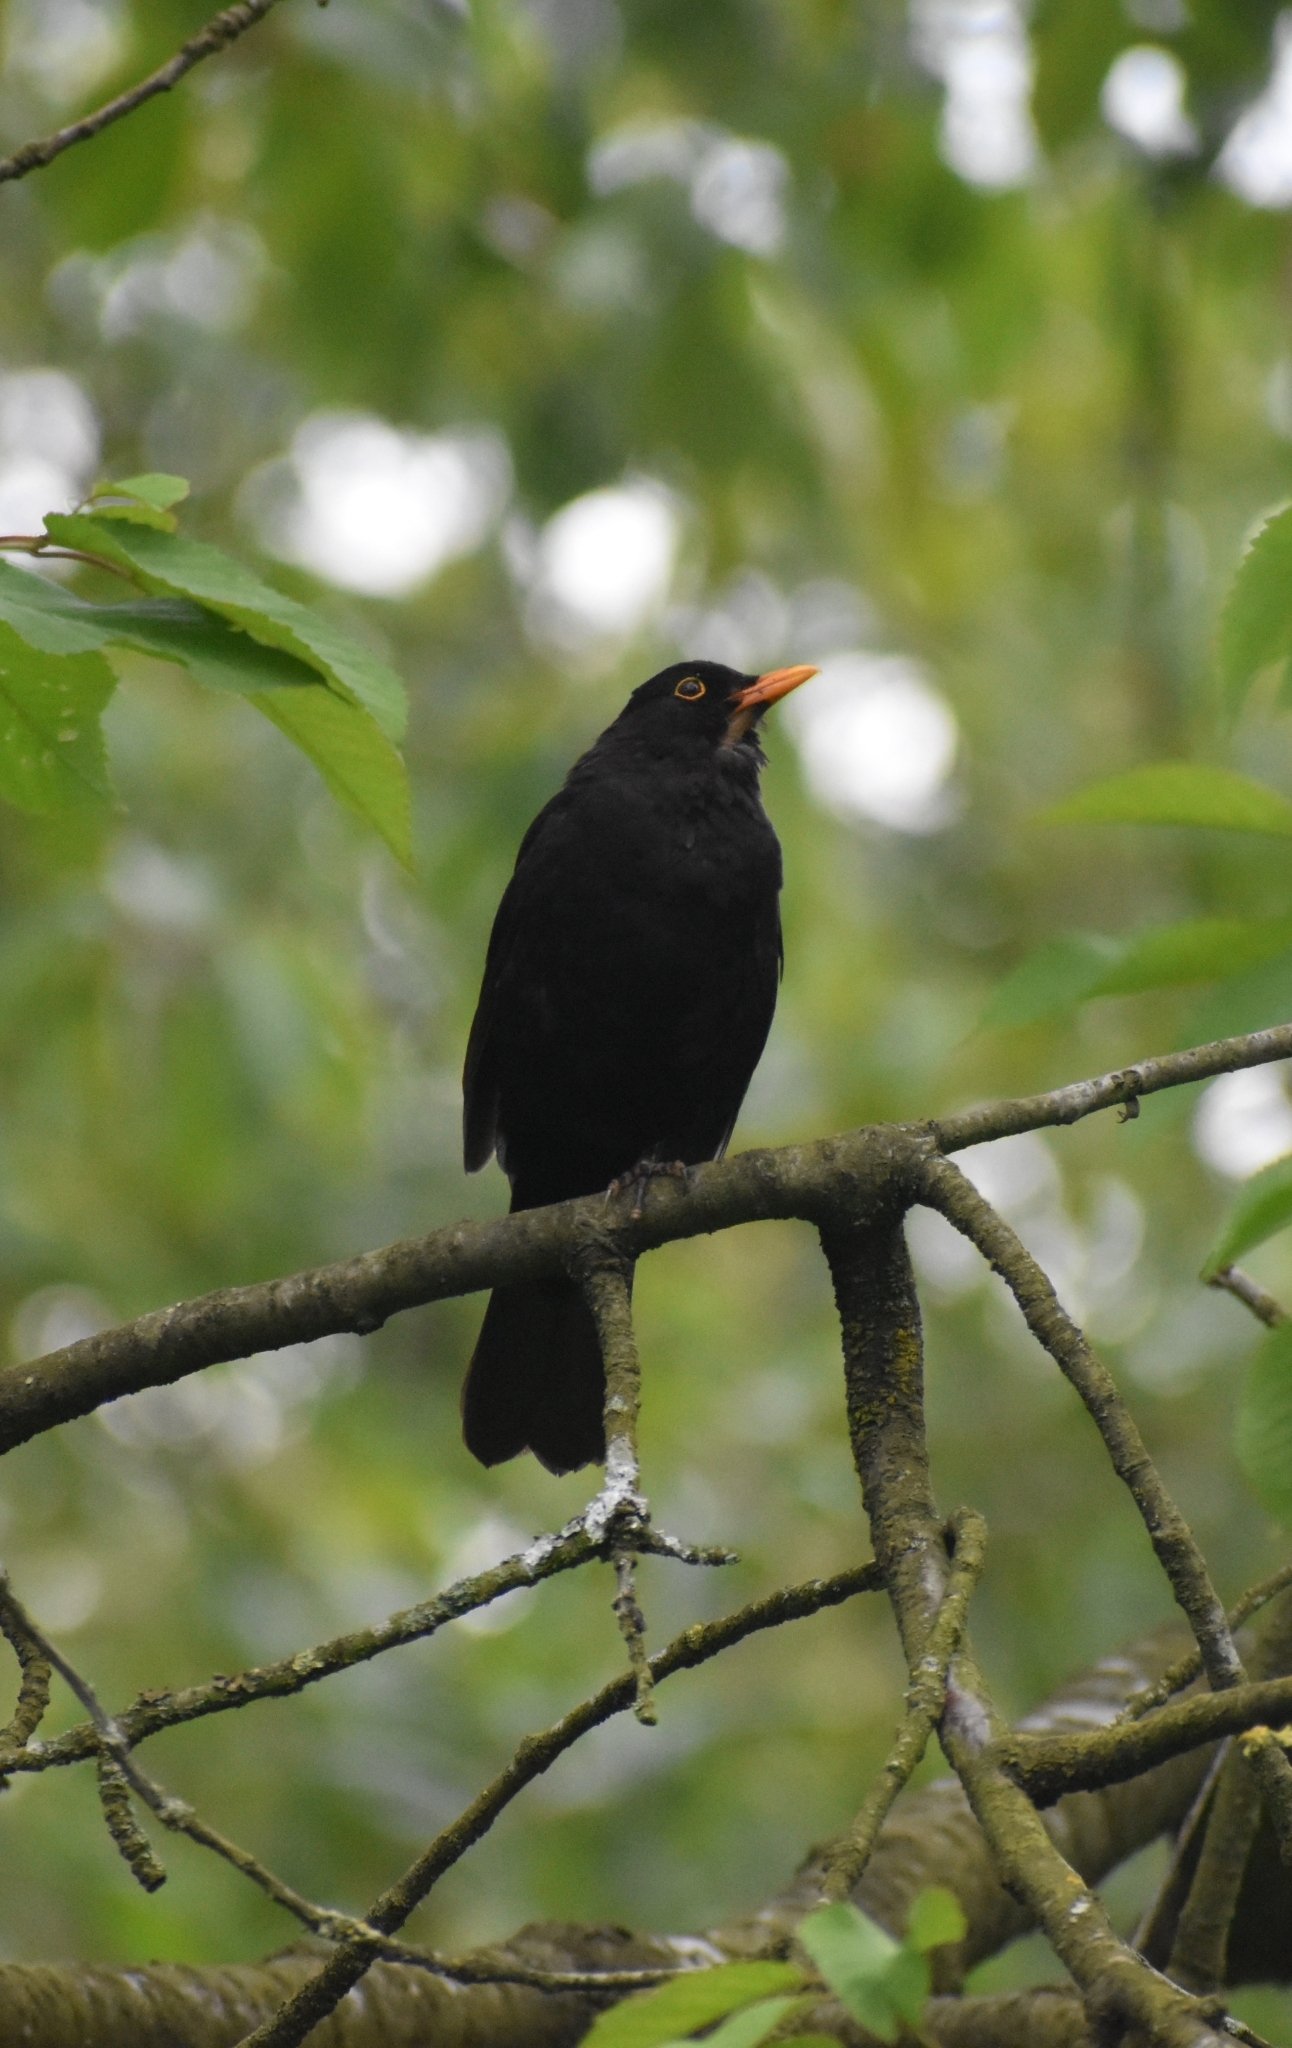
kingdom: Animalia
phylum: Chordata
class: Aves
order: Passeriformes
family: Turdidae
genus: Turdus
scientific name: Turdus merula
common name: Common blackbird
